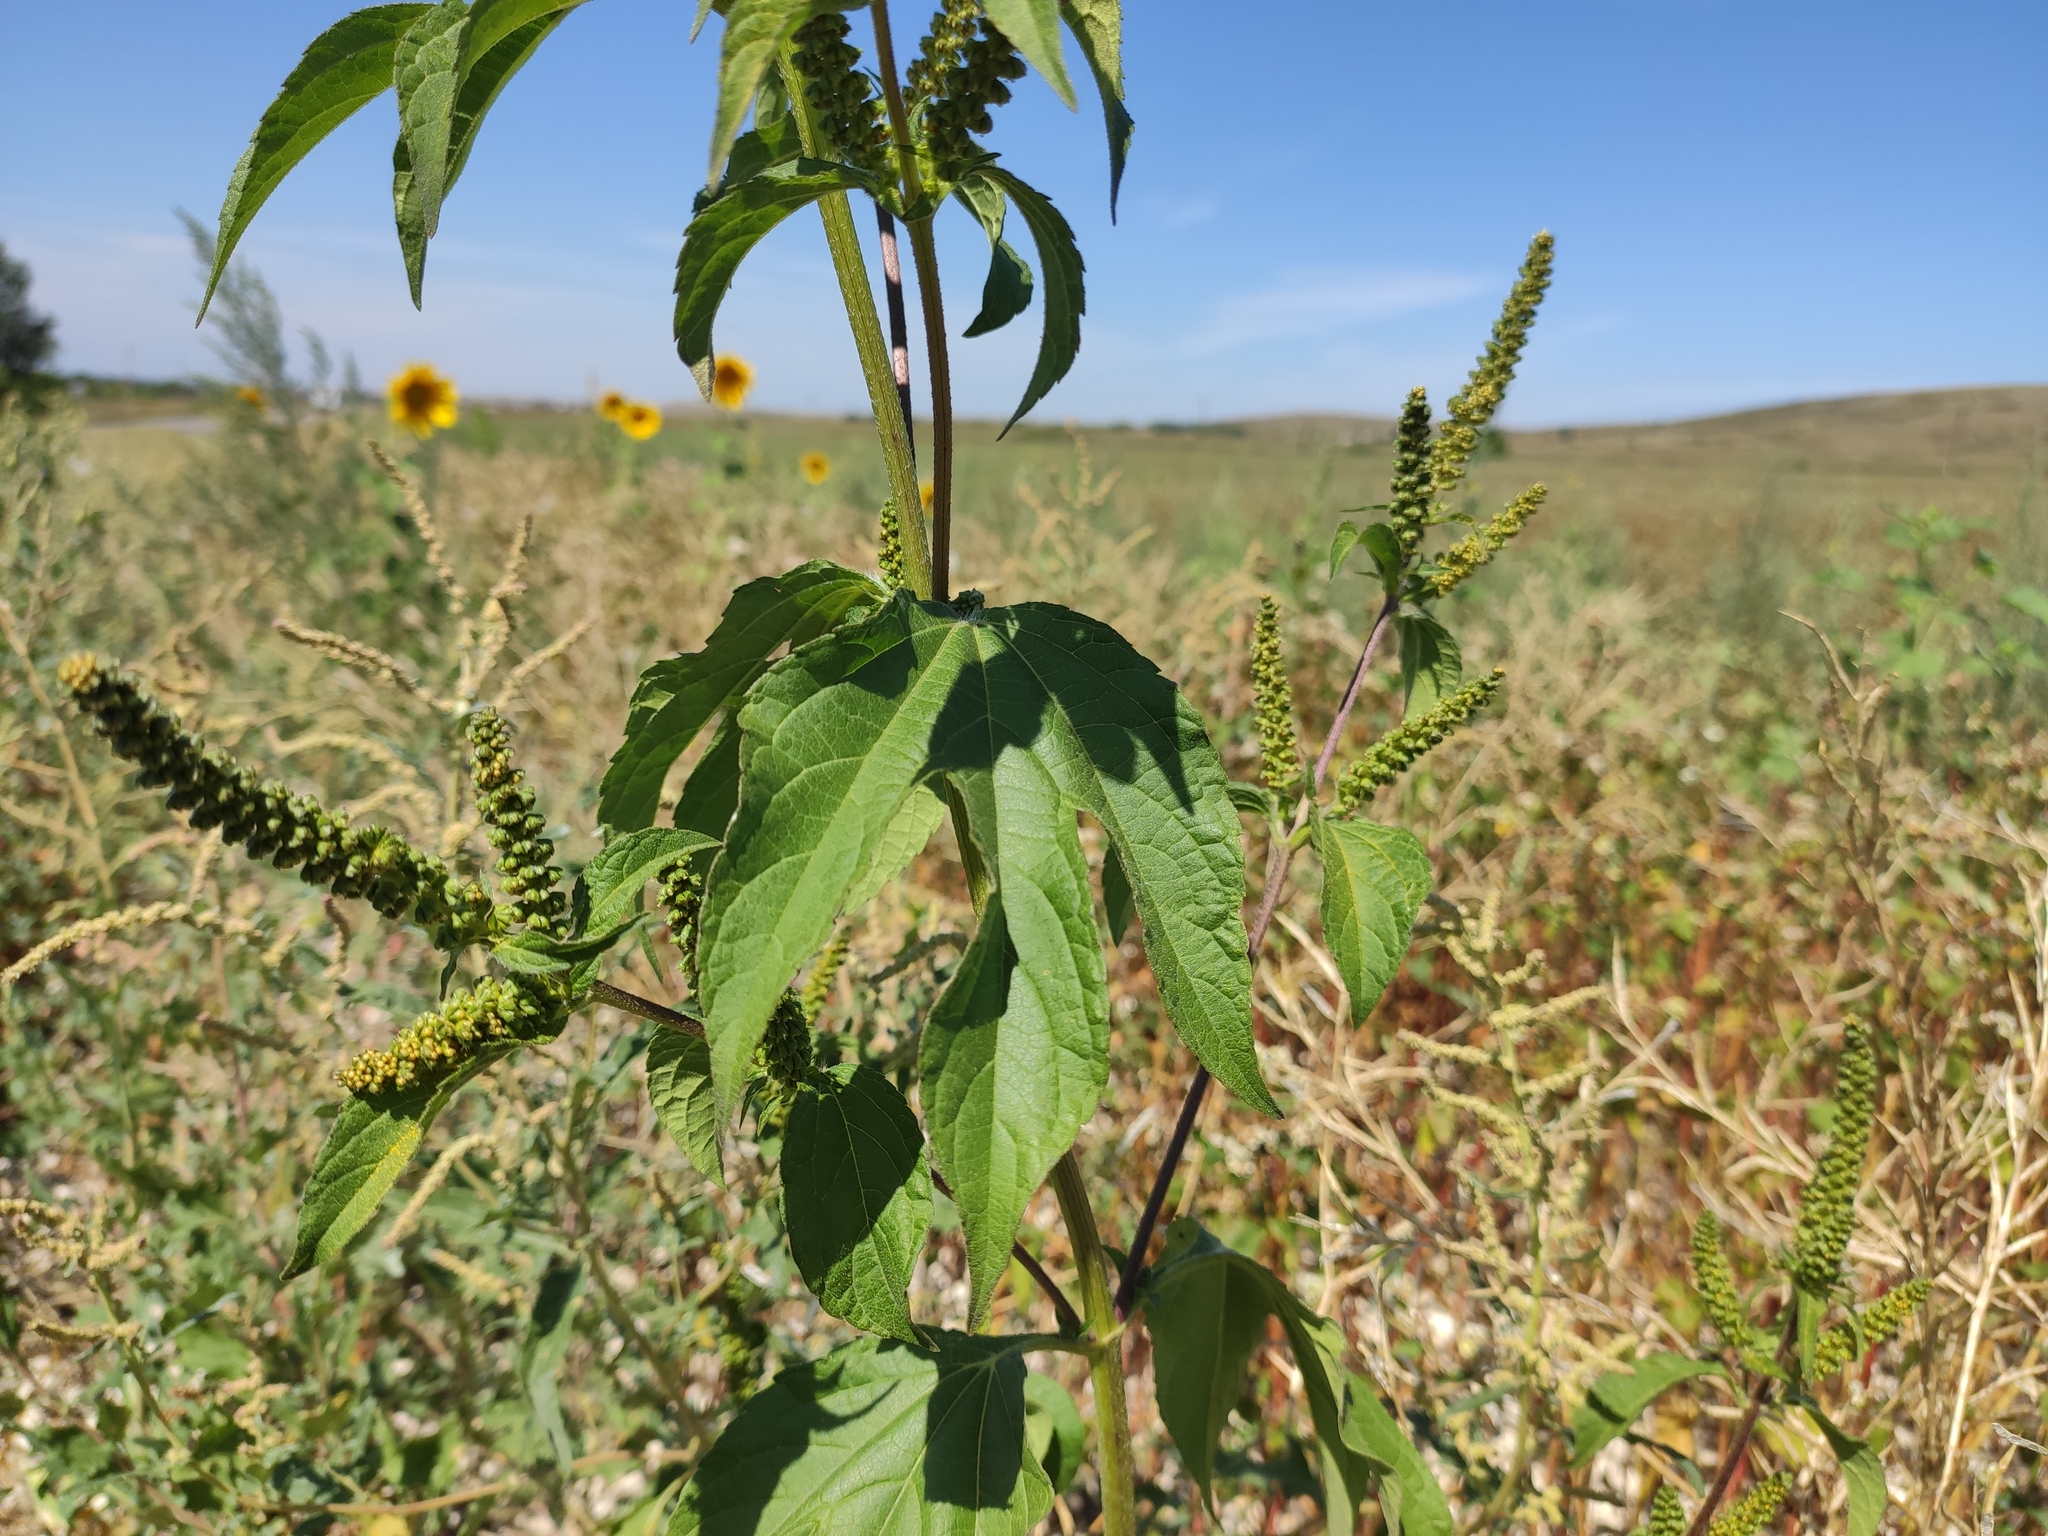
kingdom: Plantae
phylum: Tracheophyta
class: Magnoliopsida
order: Asterales
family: Asteraceae
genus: Ambrosia
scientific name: Ambrosia trifida
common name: Giant ragweed
